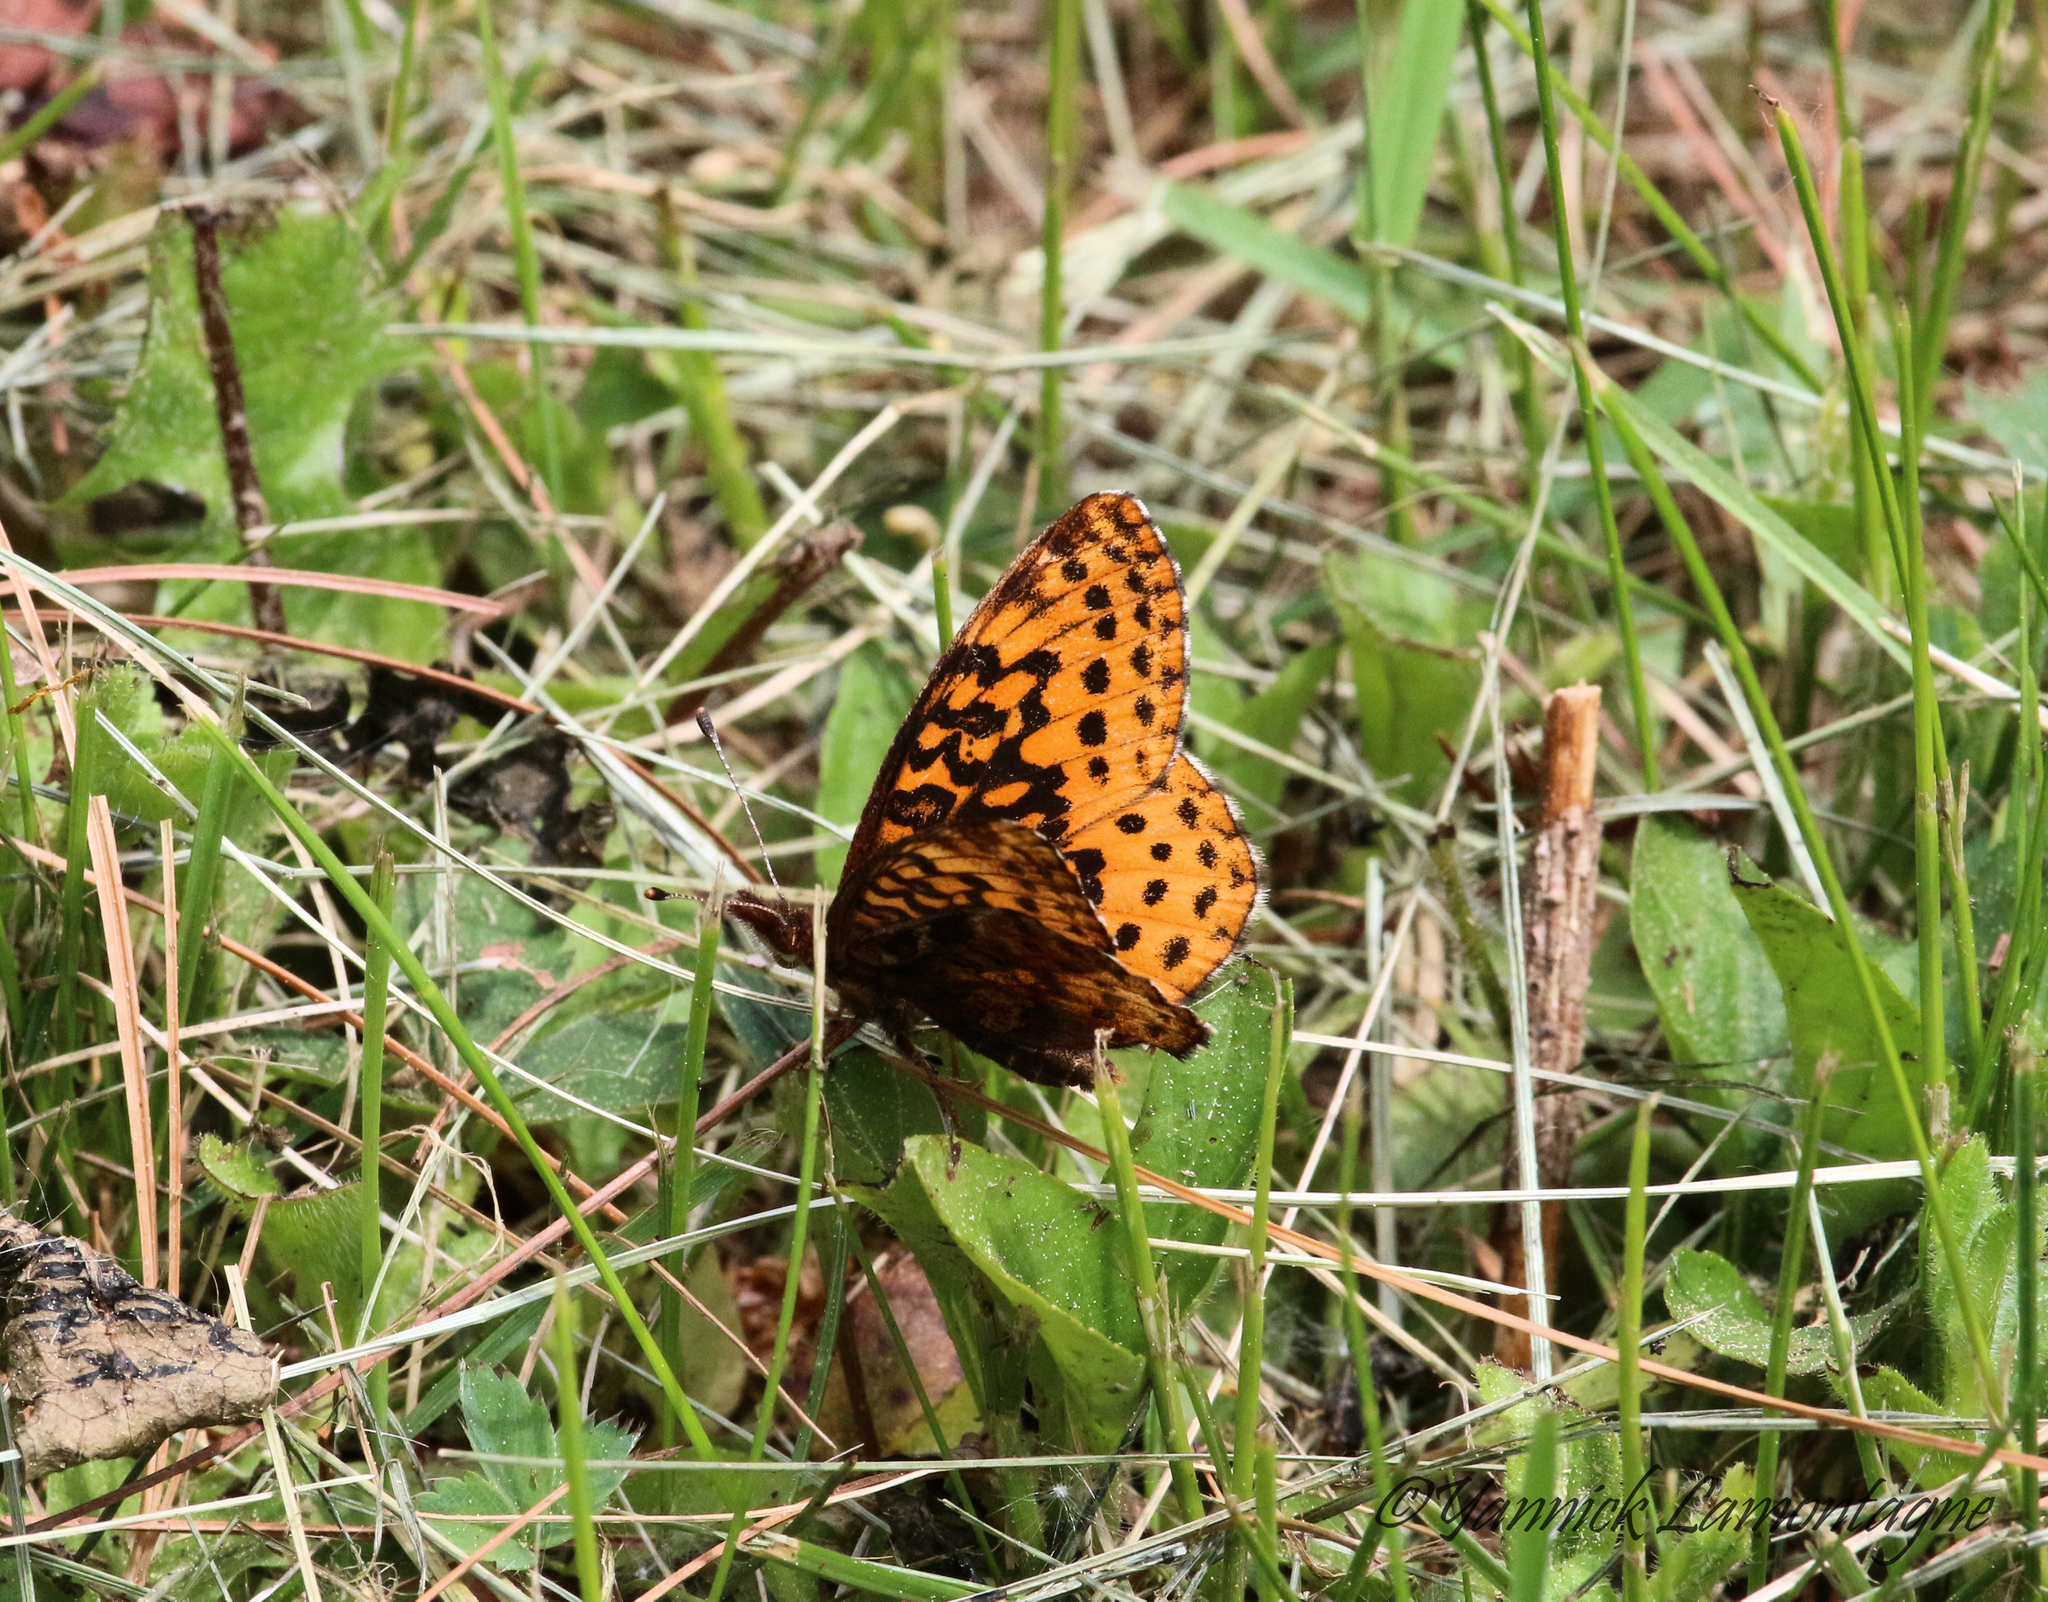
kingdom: Animalia
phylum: Arthropoda
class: Insecta
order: Lepidoptera
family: Nymphalidae
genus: Clossiana
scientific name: Clossiana toddi
